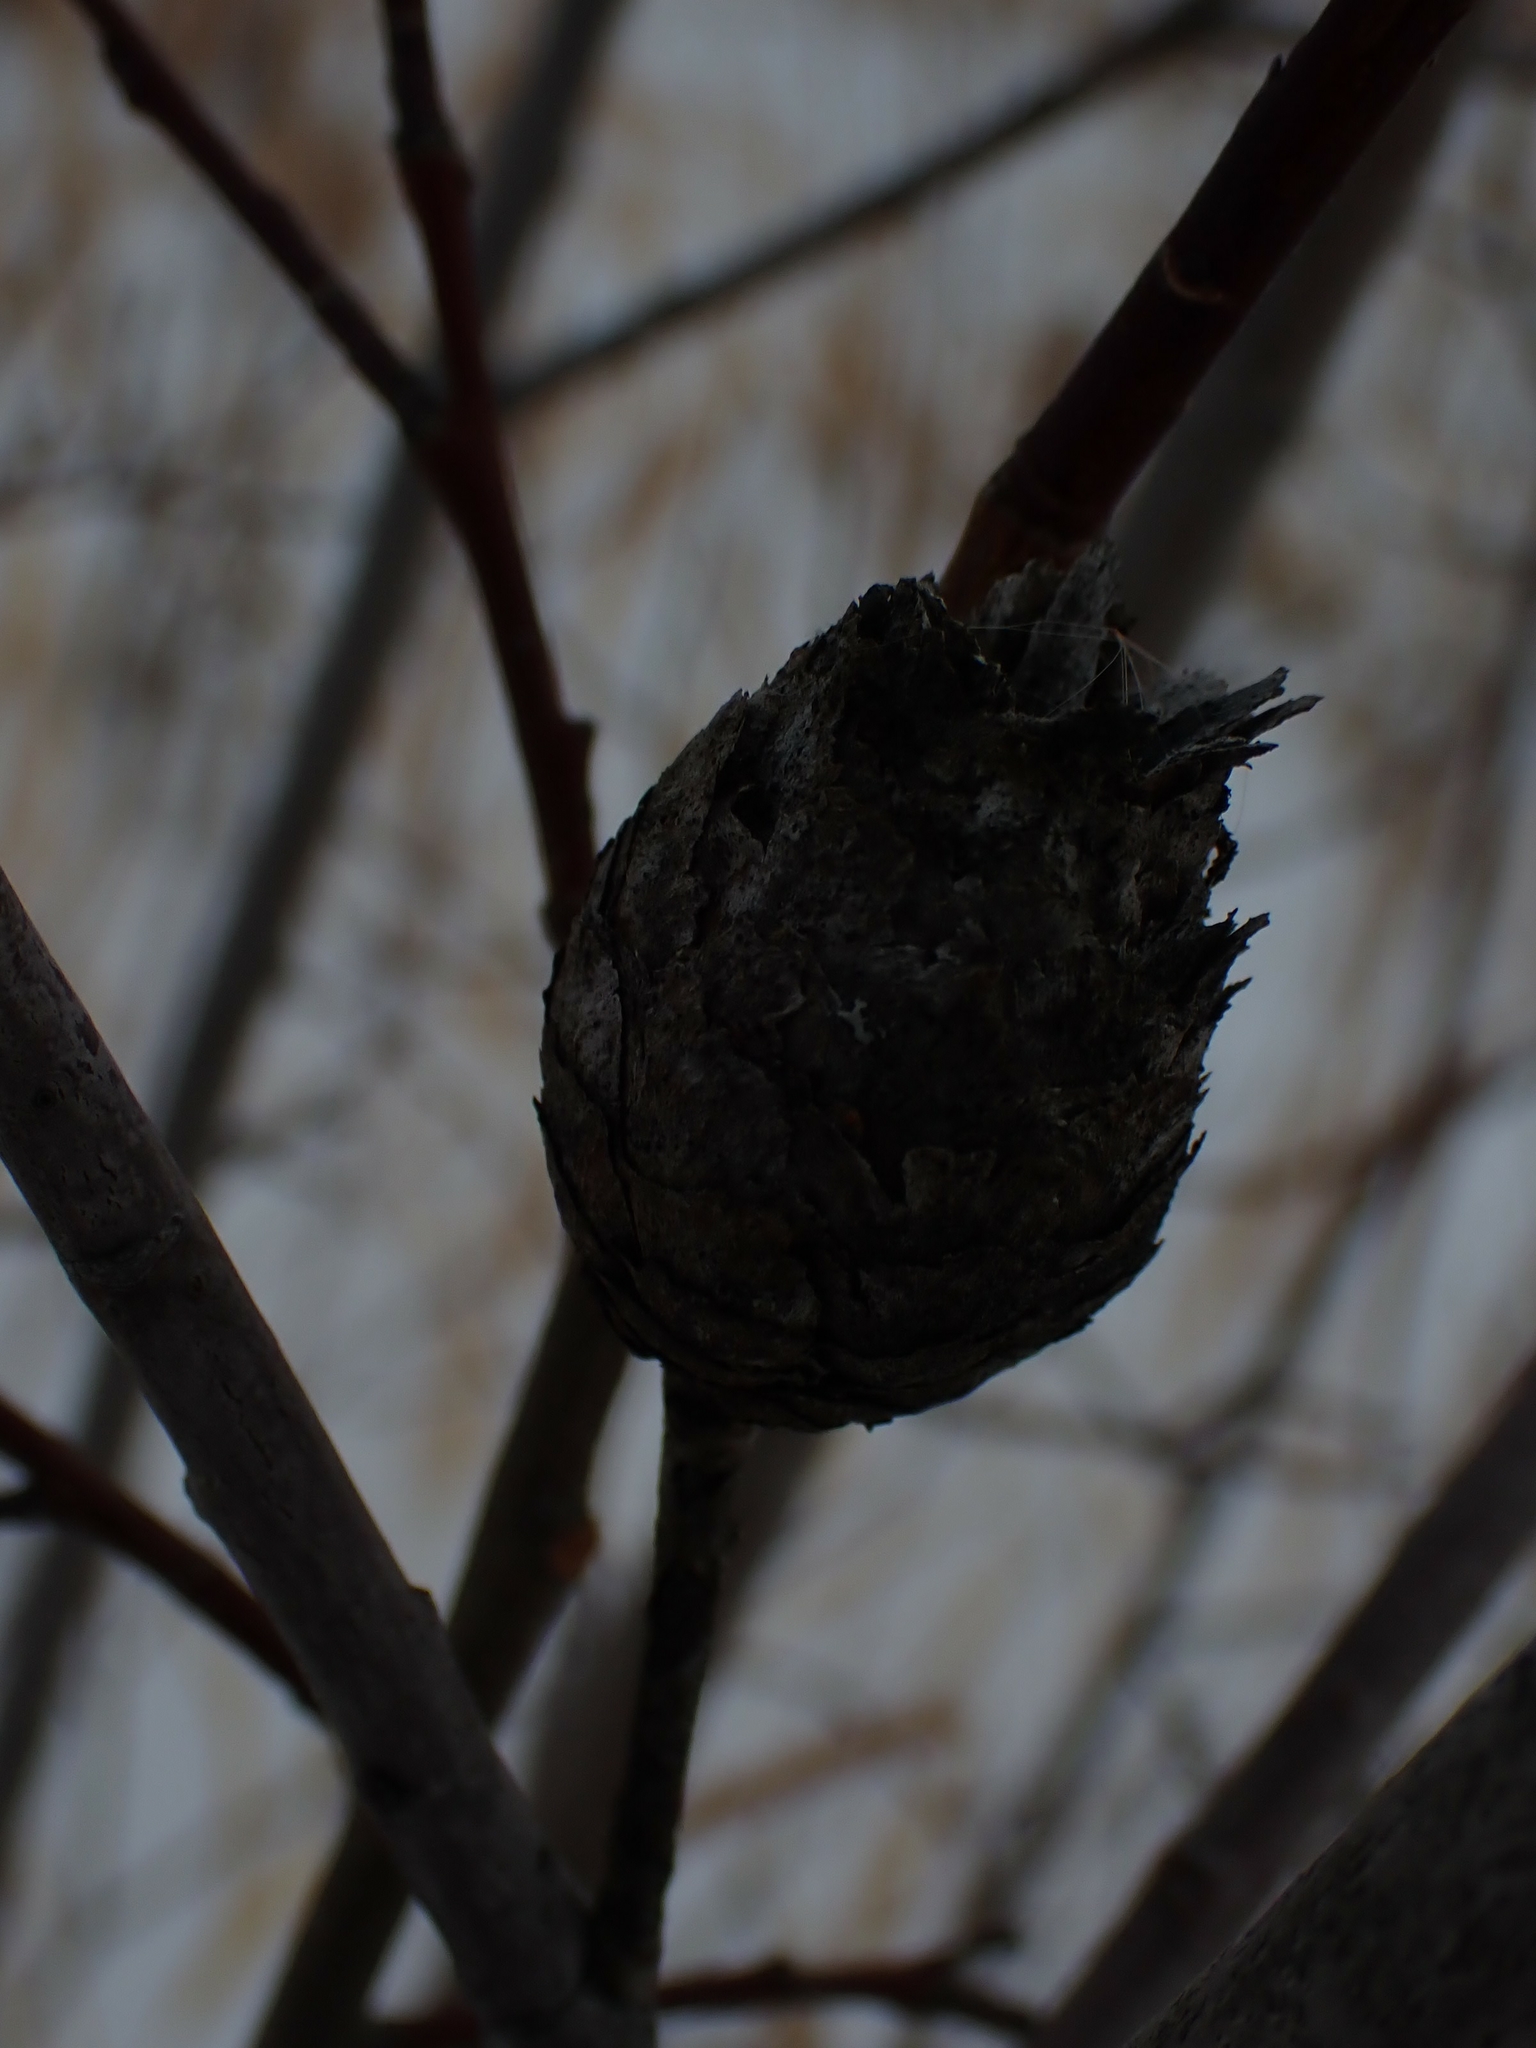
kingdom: Animalia
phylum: Arthropoda
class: Insecta
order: Diptera
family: Cecidomyiidae
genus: Rabdophaga
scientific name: Rabdophaga strobiloides
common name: Willow pinecone gall midge
